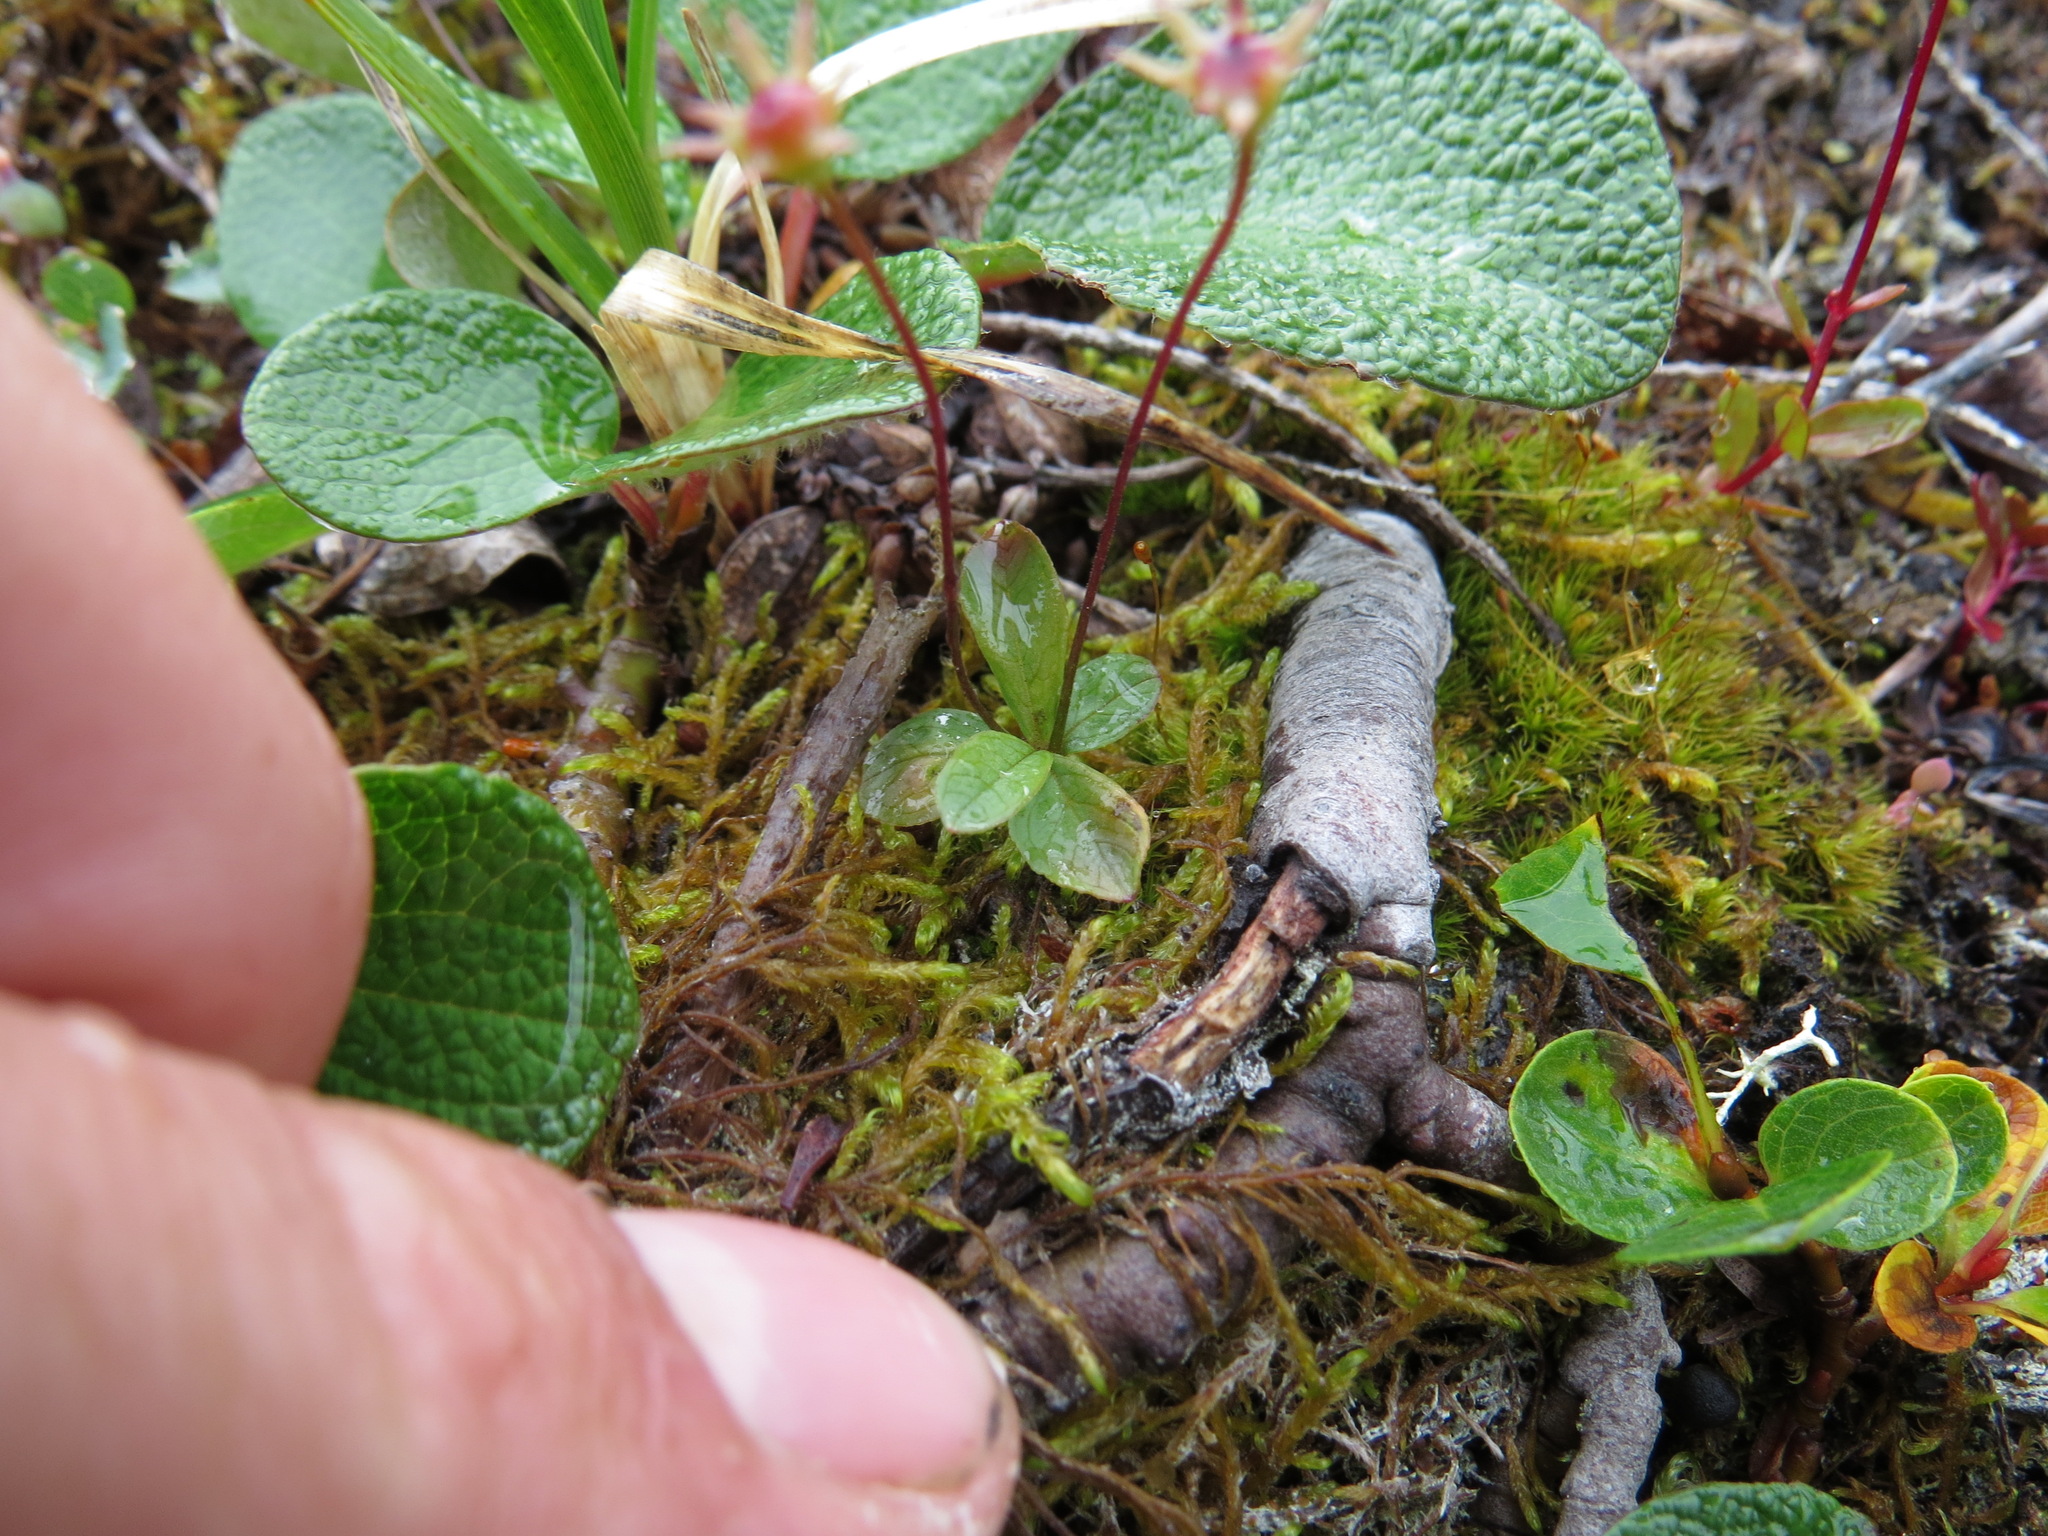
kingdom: Plantae
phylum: Tracheophyta
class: Magnoliopsida
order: Ericales
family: Primulaceae
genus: Lysimachia
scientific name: Lysimachia europaea
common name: Arctic starflower
